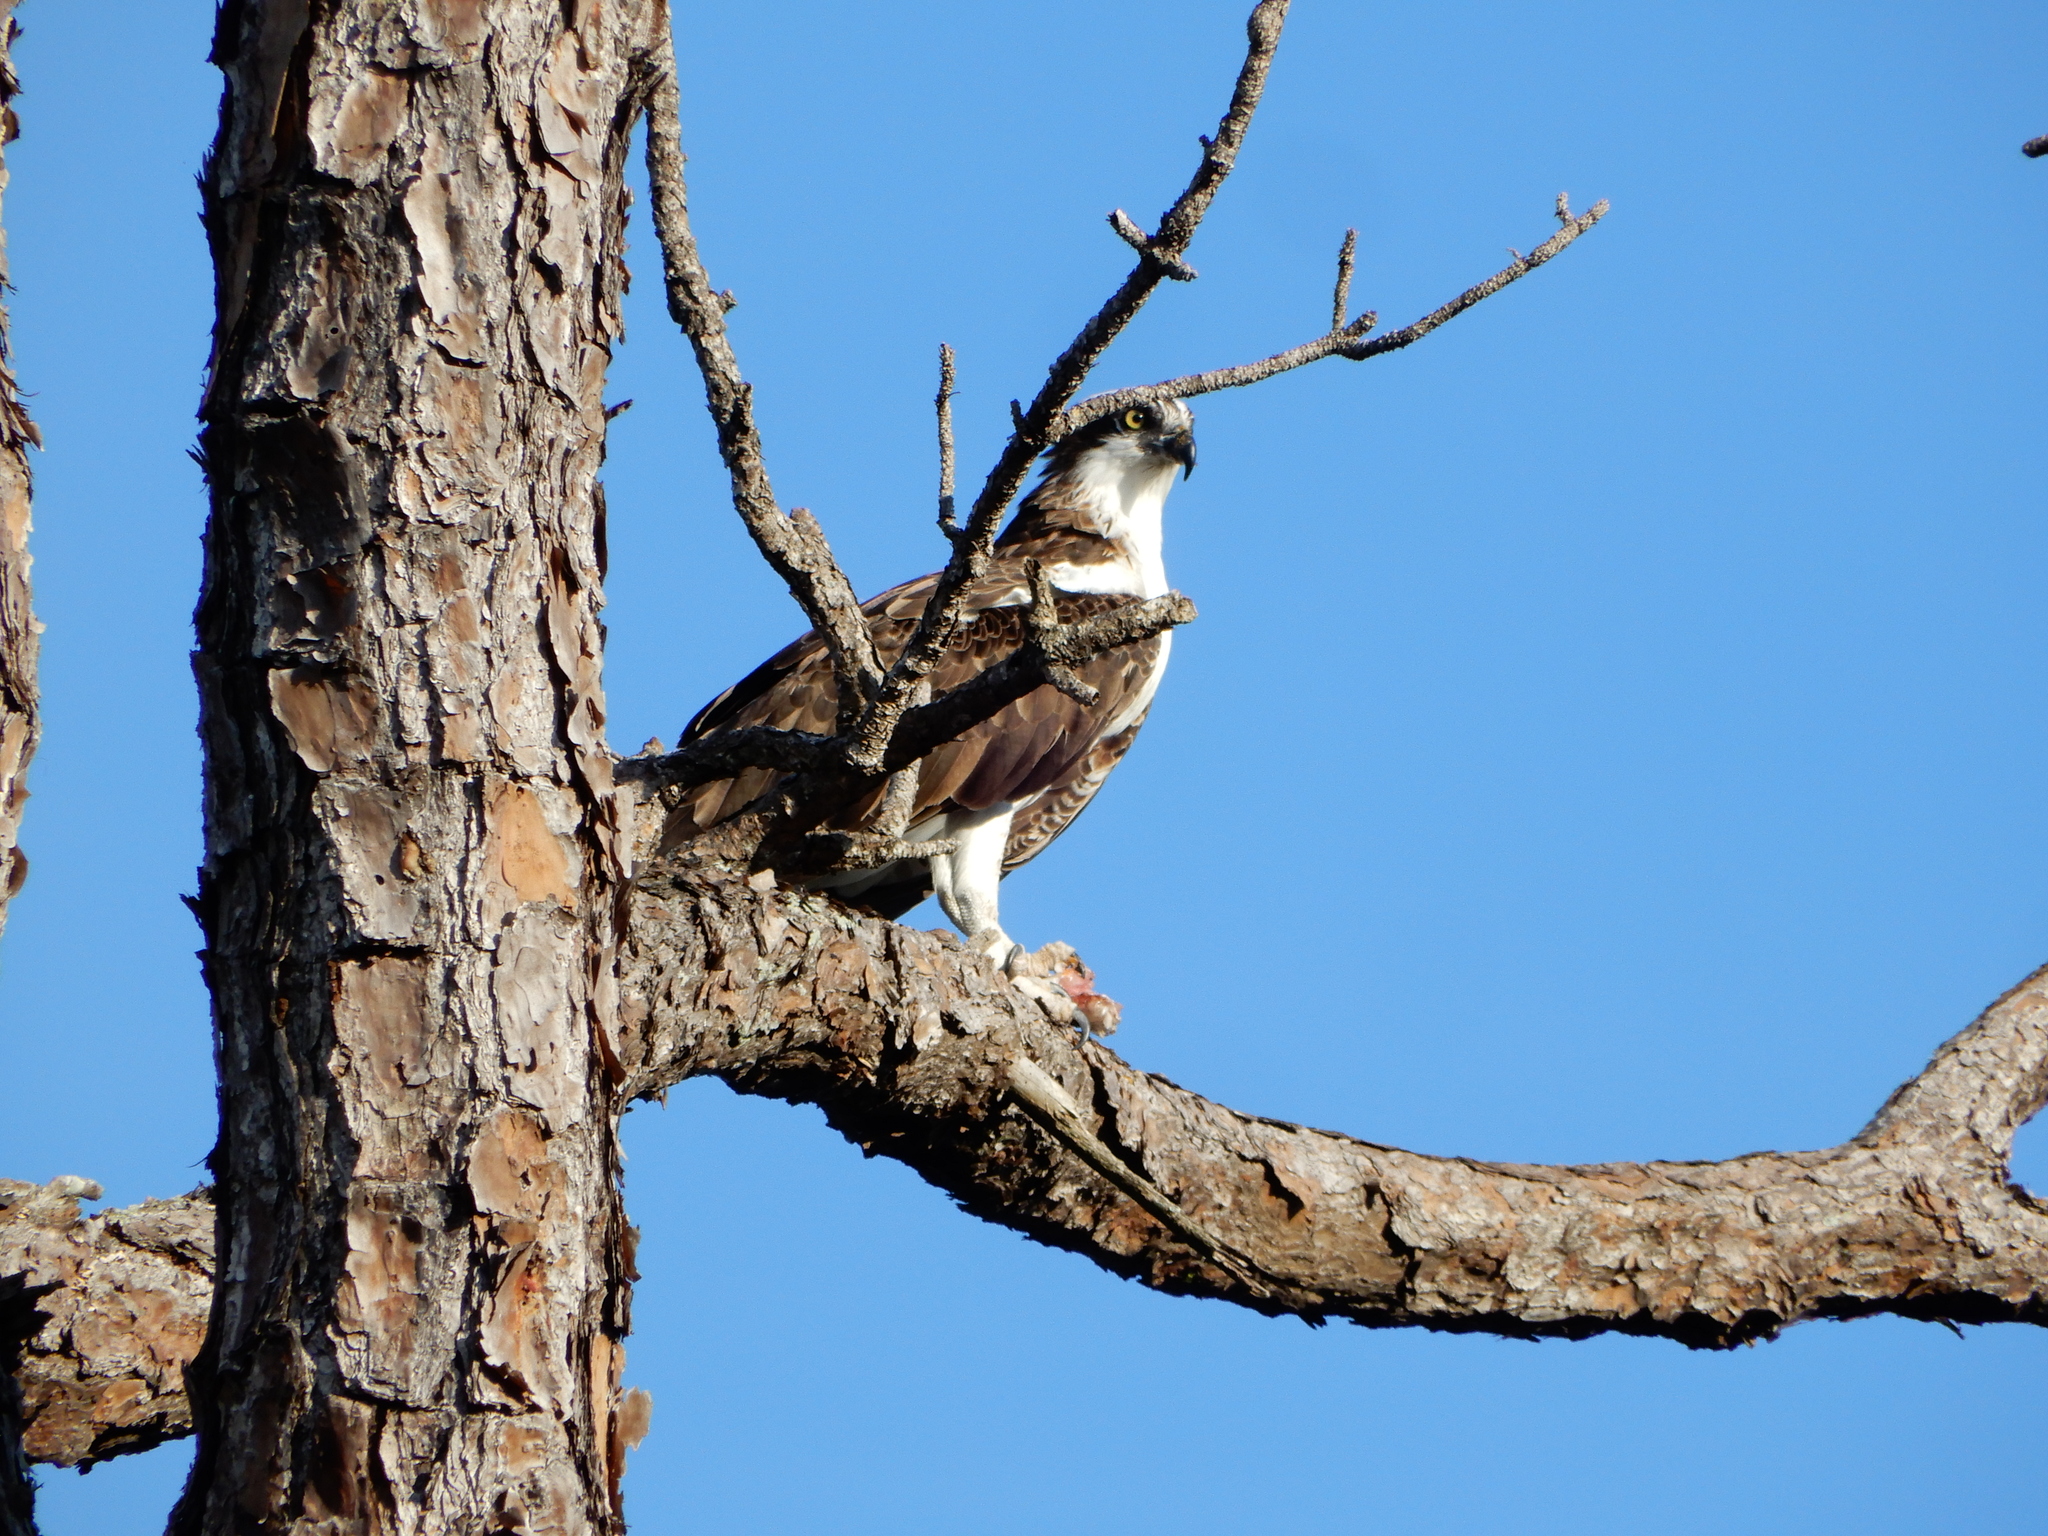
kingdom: Animalia
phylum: Chordata
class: Aves
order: Accipitriformes
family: Pandionidae
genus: Pandion
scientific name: Pandion haliaetus
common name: Osprey
